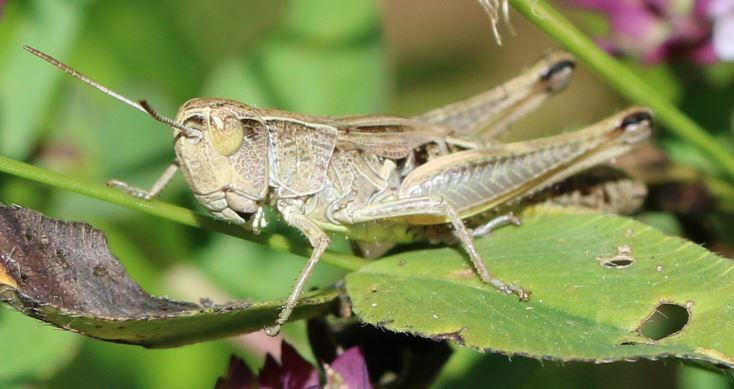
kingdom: Animalia
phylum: Arthropoda
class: Insecta
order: Orthoptera
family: Acrididae
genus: Pseudochorthippus
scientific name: Pseudochorthippus parallelus
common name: Meadow grasshopper
